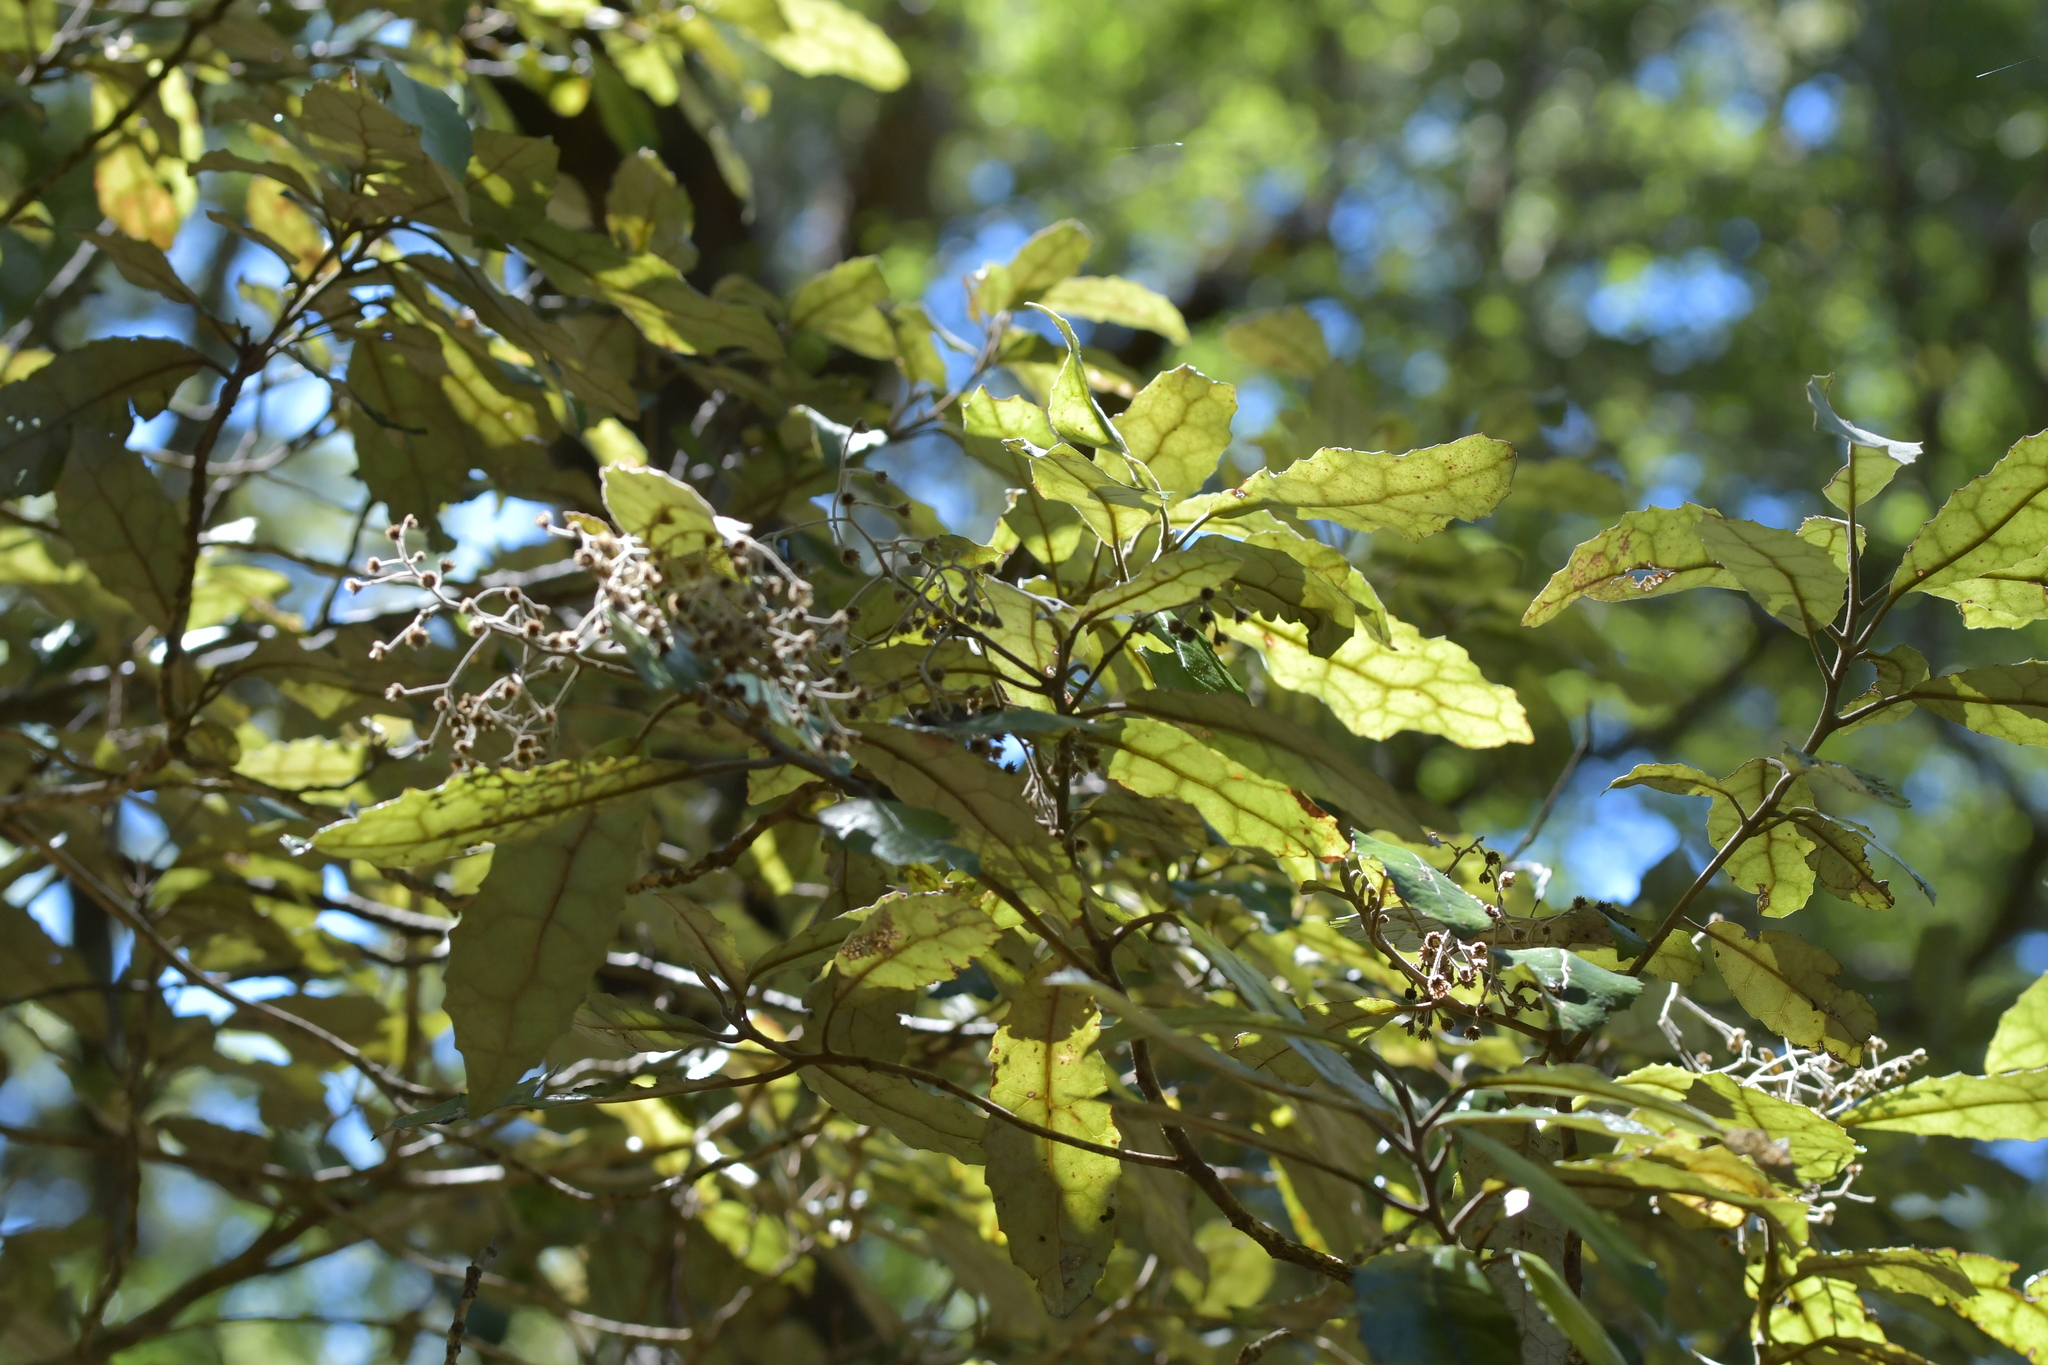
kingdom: Plantae
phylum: Tracheophyta
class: Magnoliopsida
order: Asterales
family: Asteraceae
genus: Olearia
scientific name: Olearia rani
